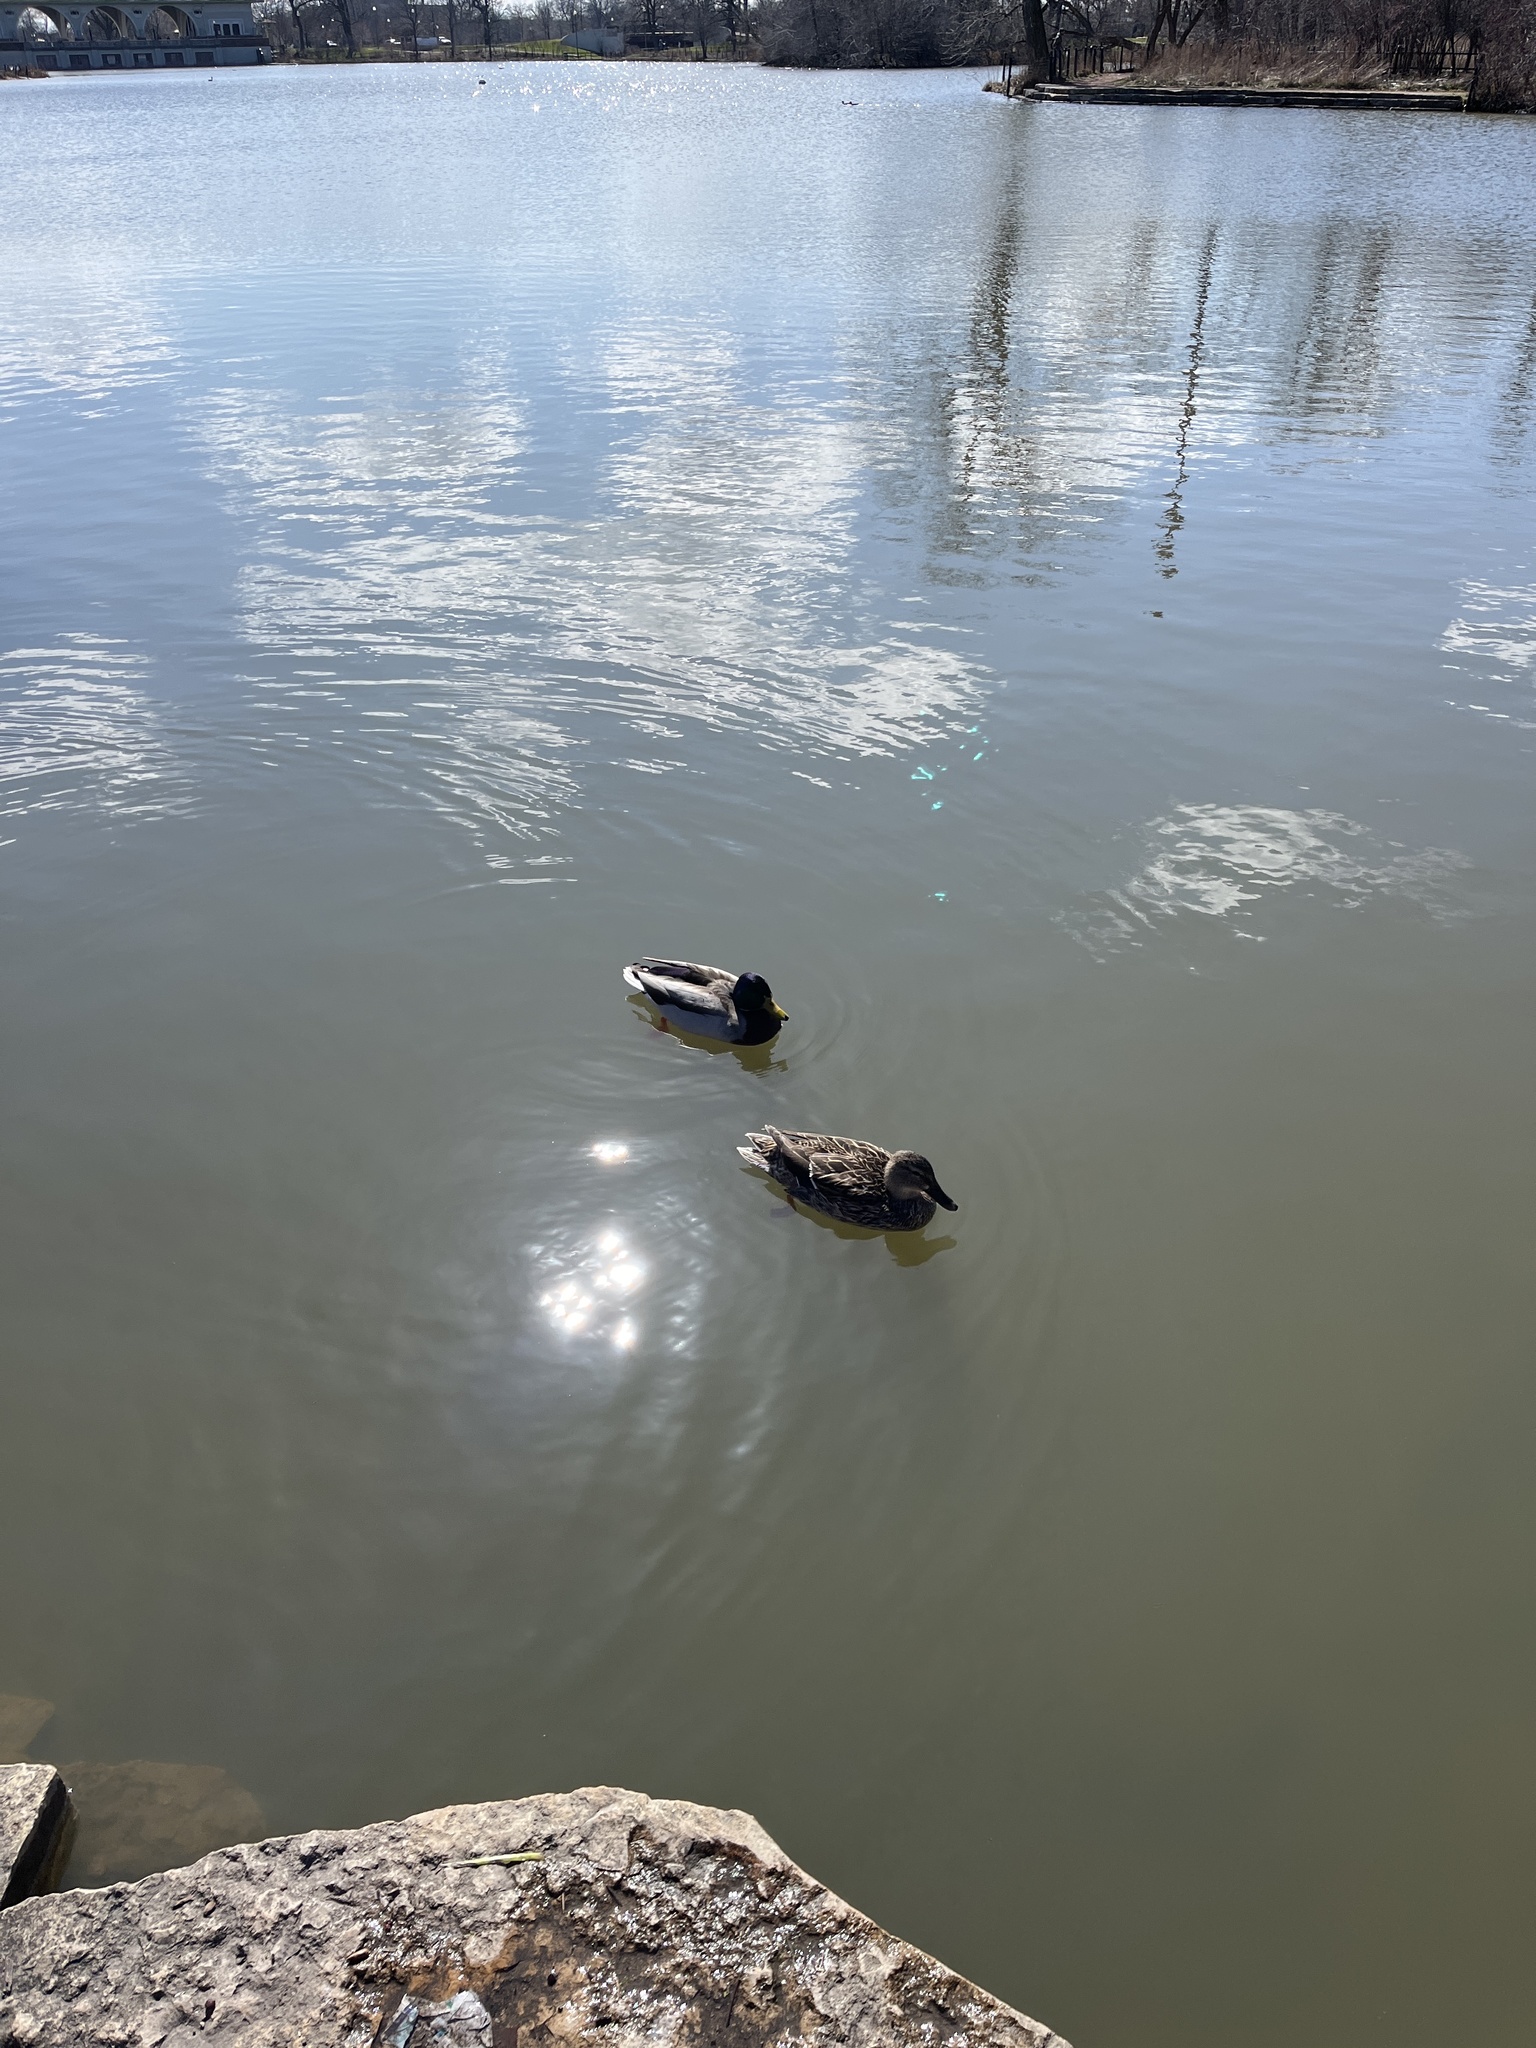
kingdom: Animalia
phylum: Chordata
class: Aves
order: Anseriformes
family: Anatidae
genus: Anas
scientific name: Anas platyrhynchos
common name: Mallard
